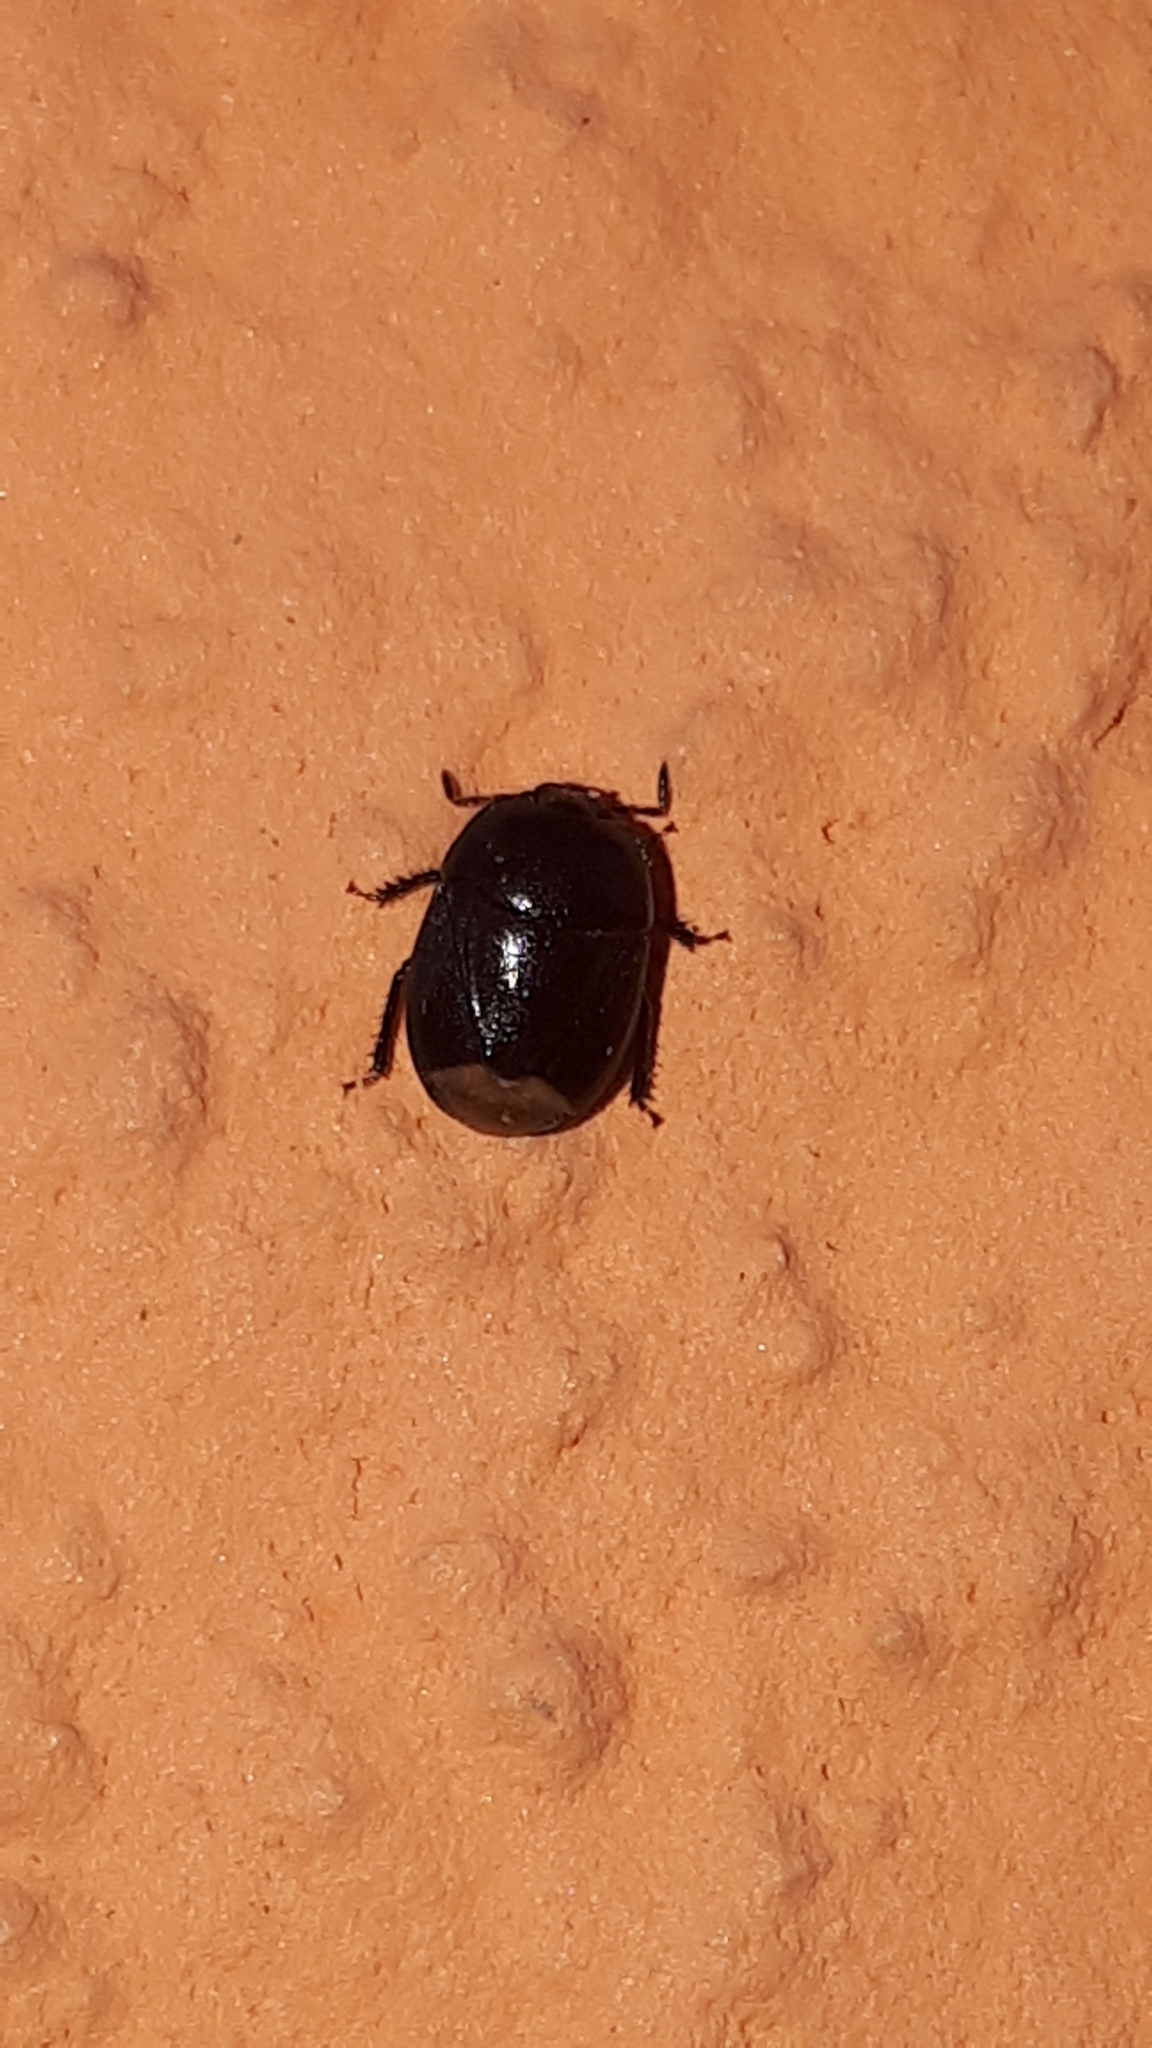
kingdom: Animalia
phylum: Arthropoda
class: Insecta
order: Hemiptera
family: Cydnidae
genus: Legnotus
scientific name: Legnotus picipes
